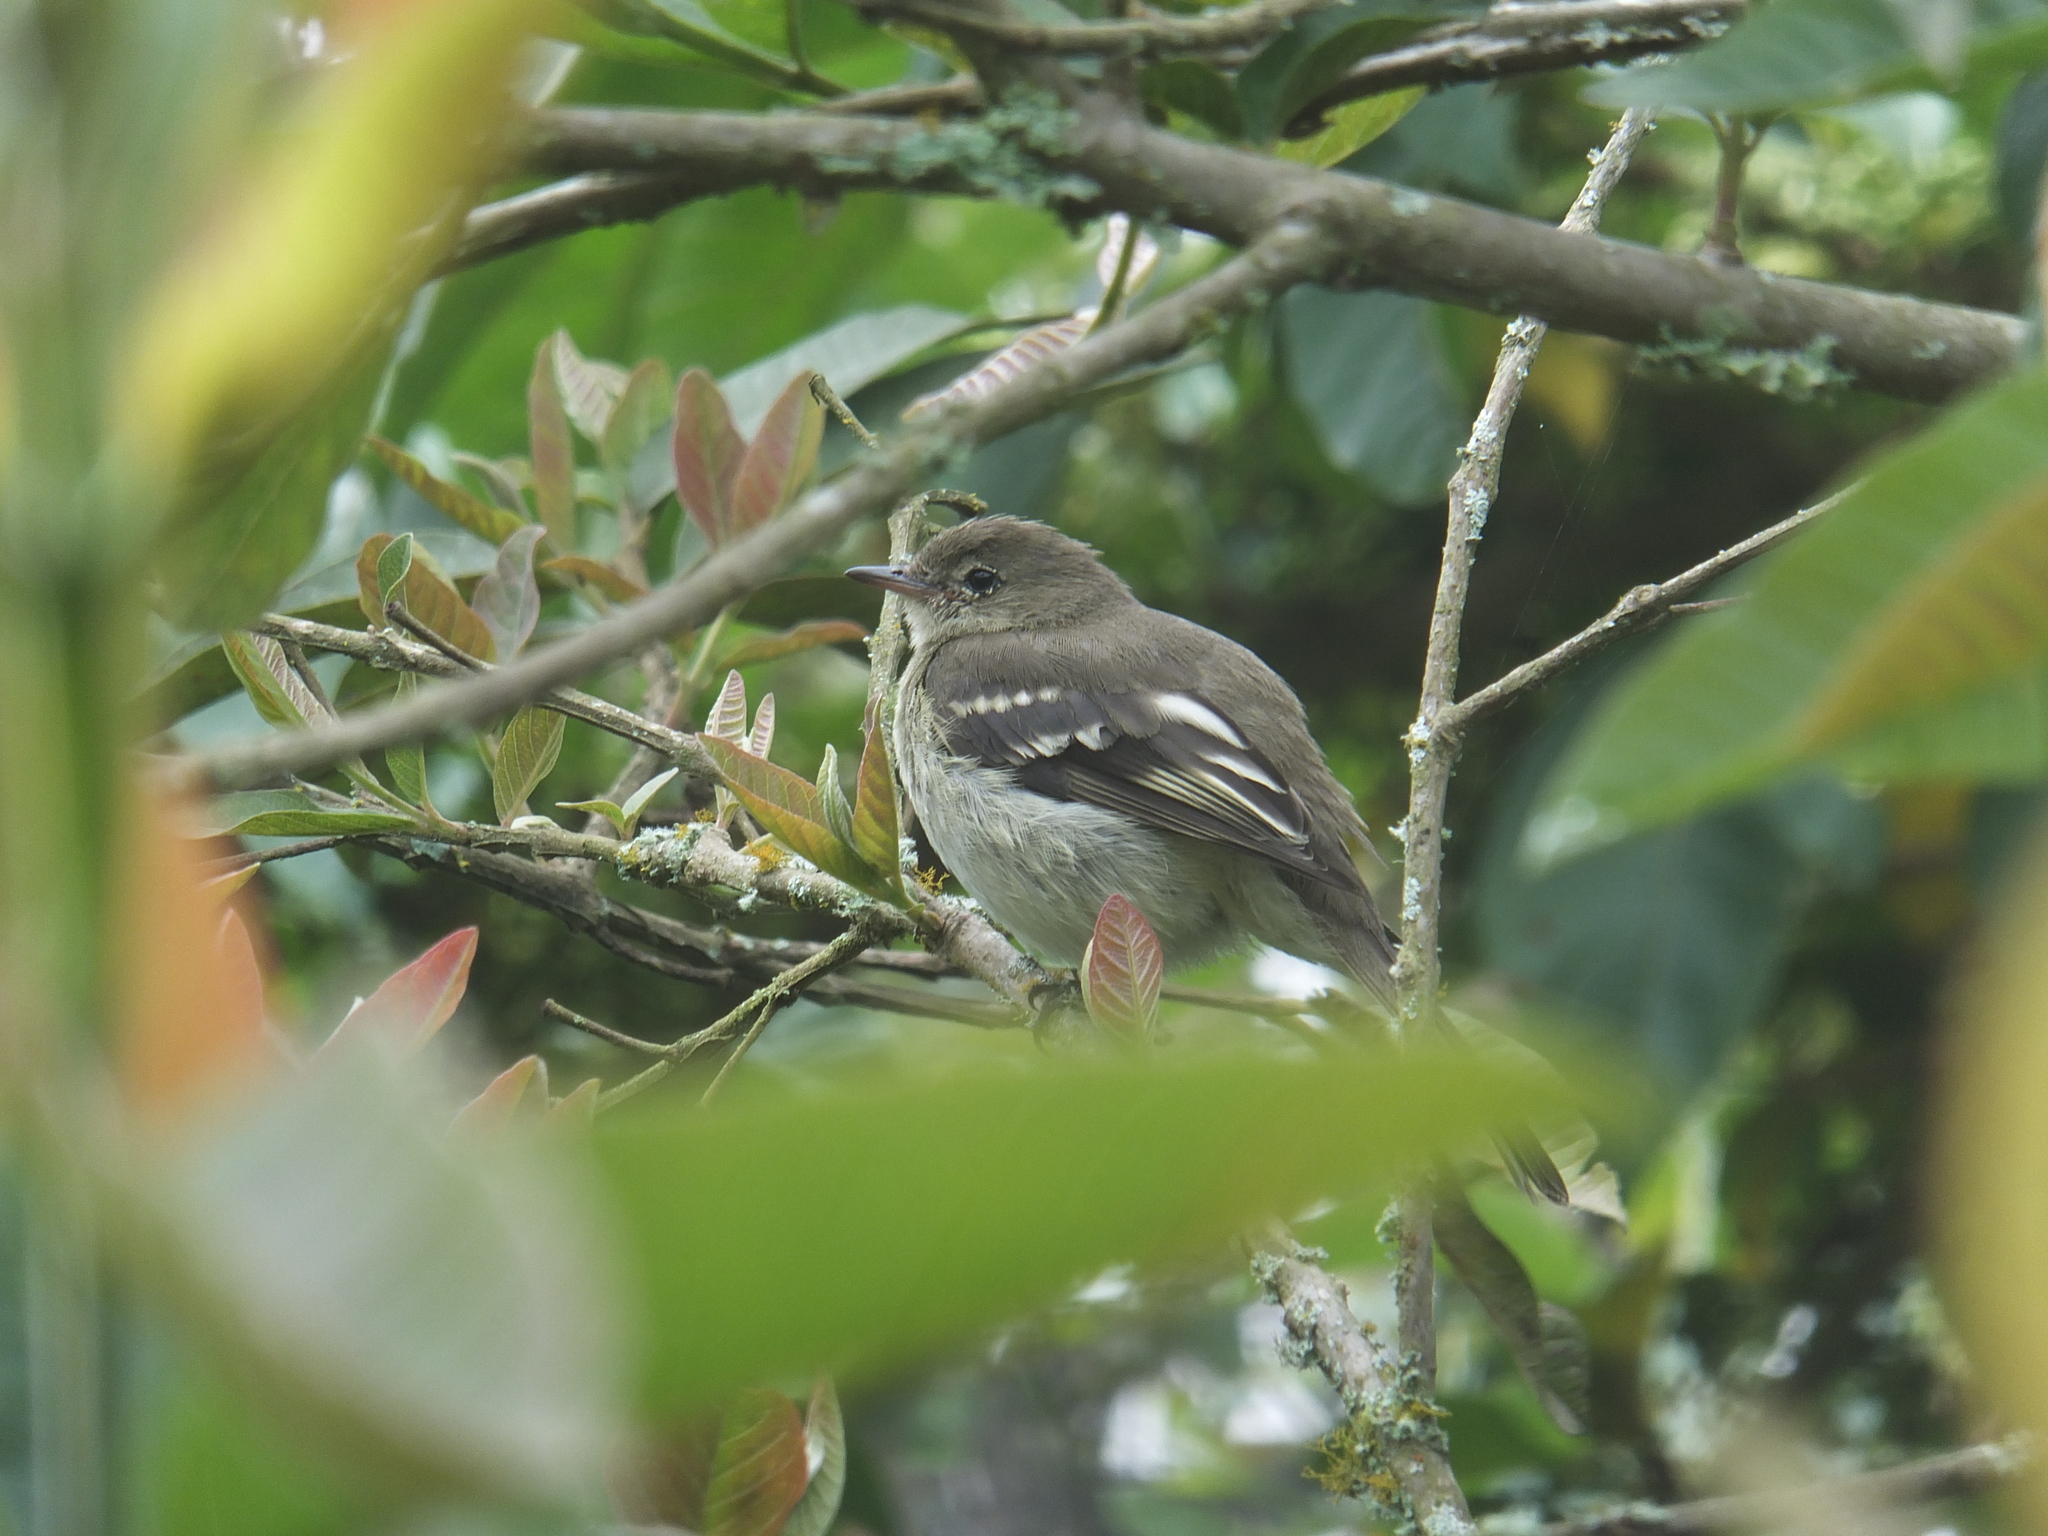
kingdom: Animalia
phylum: Chordata
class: Aves
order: Passeriformes
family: Tyrannidae
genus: Elaenia
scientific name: Elaenia frantzii
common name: Mountain elaenia
